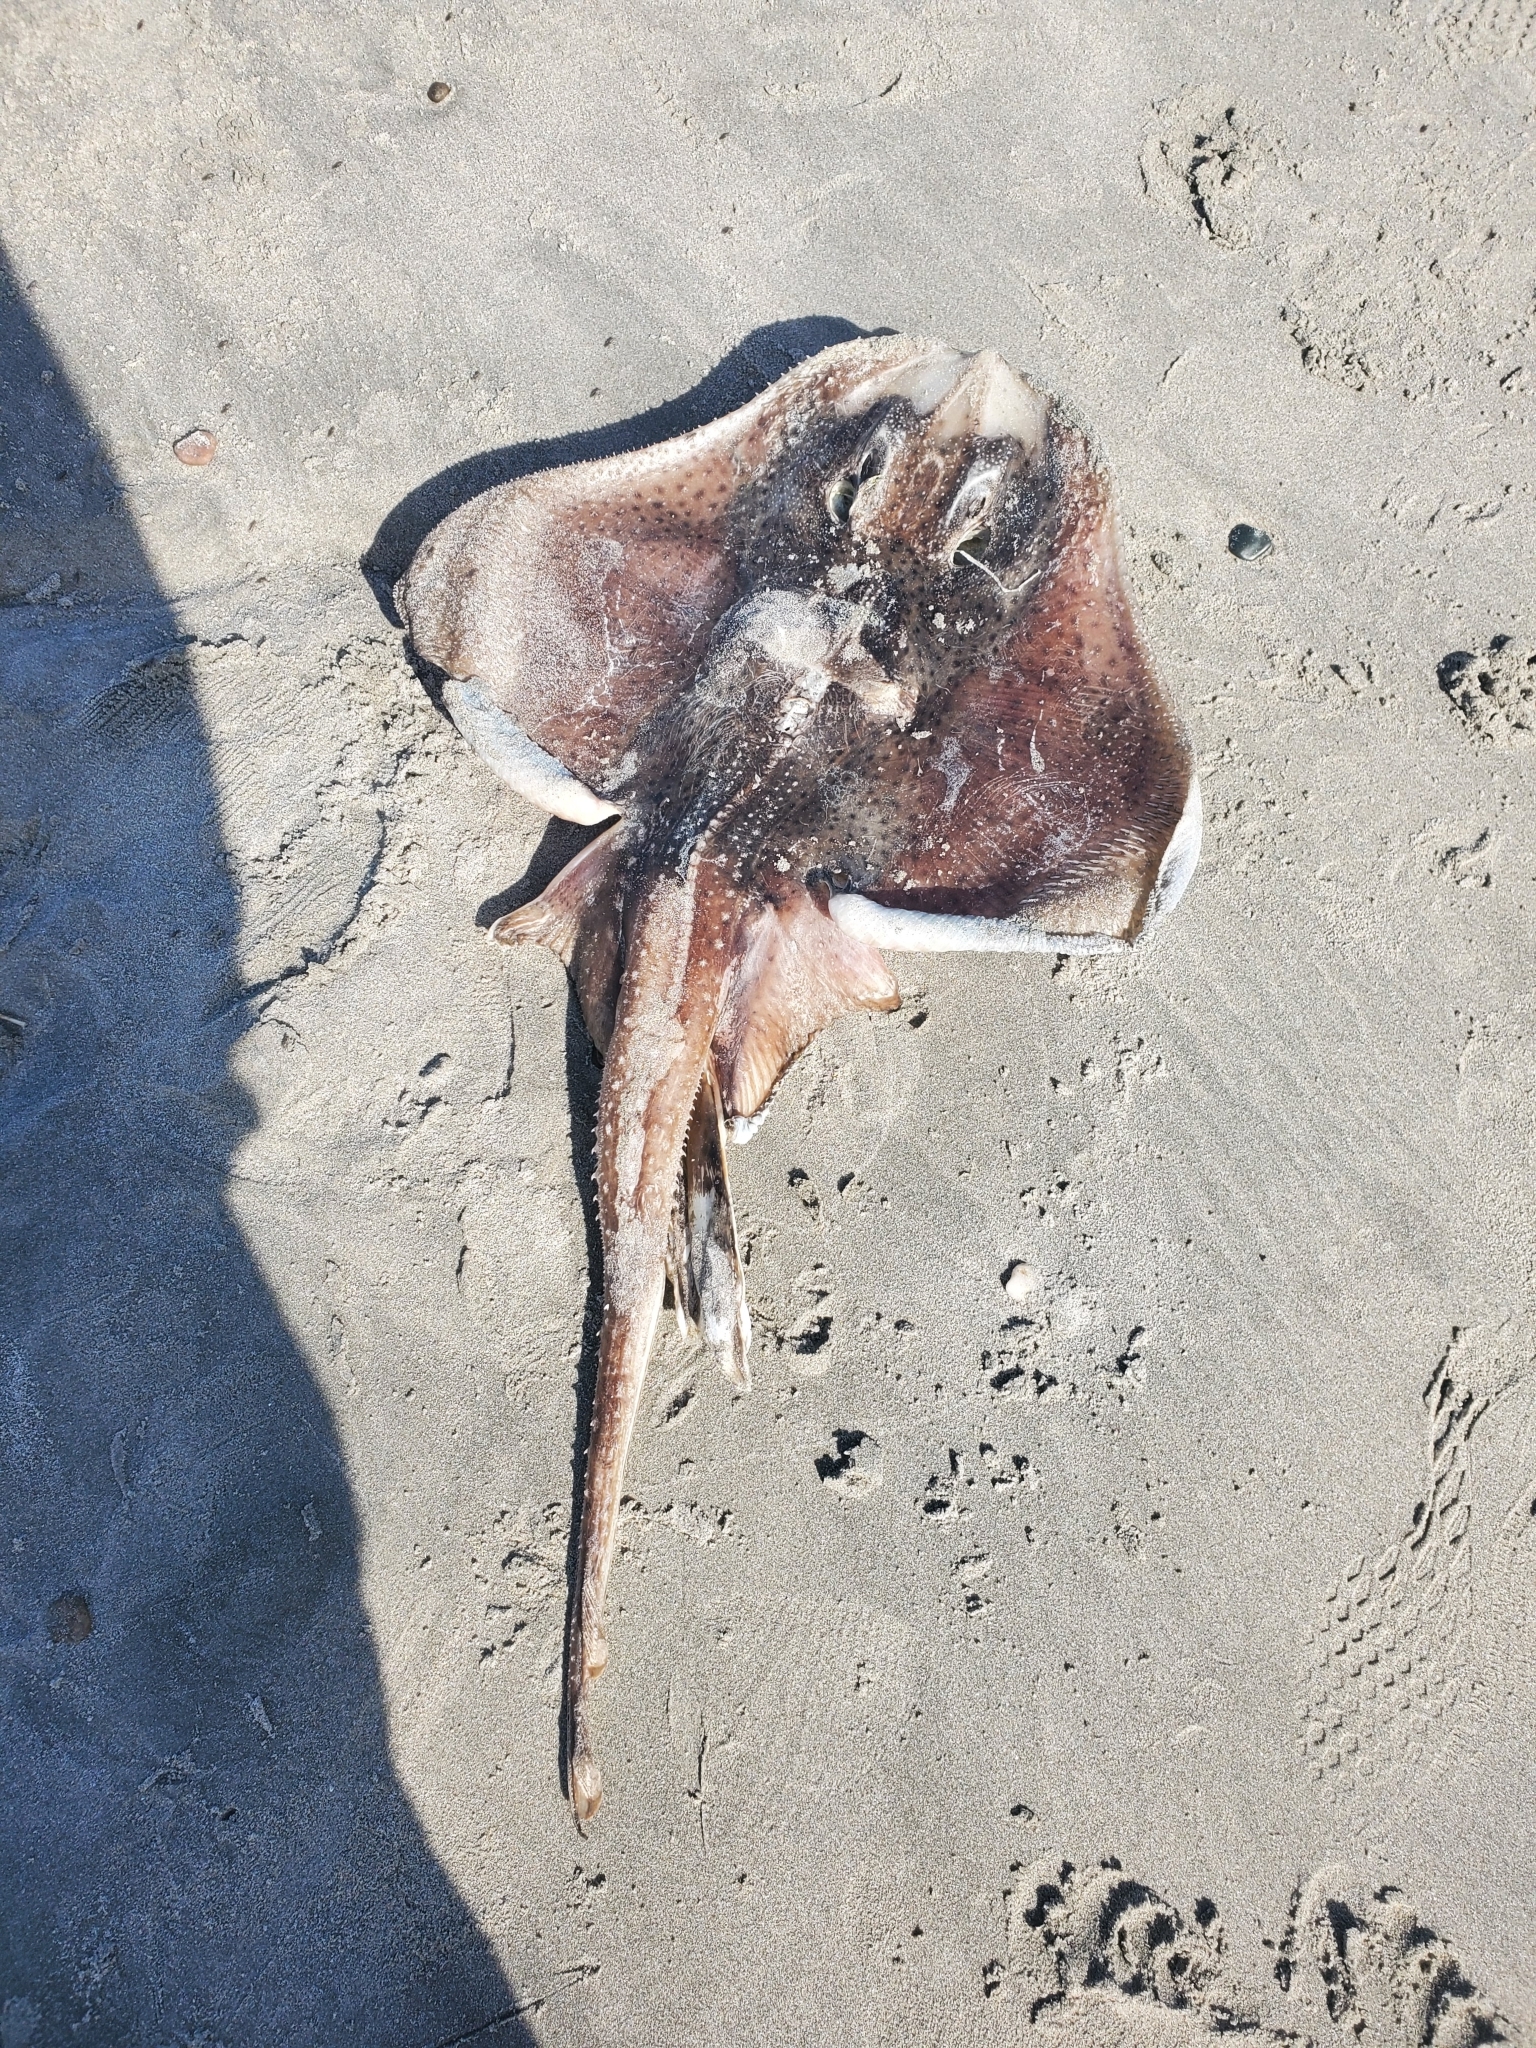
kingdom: Animalia
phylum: Chordata
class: Elasmobranchii
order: Rajiformes
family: Rajidae
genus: Leucoraja
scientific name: Leucoraja erinacea
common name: Little skate
